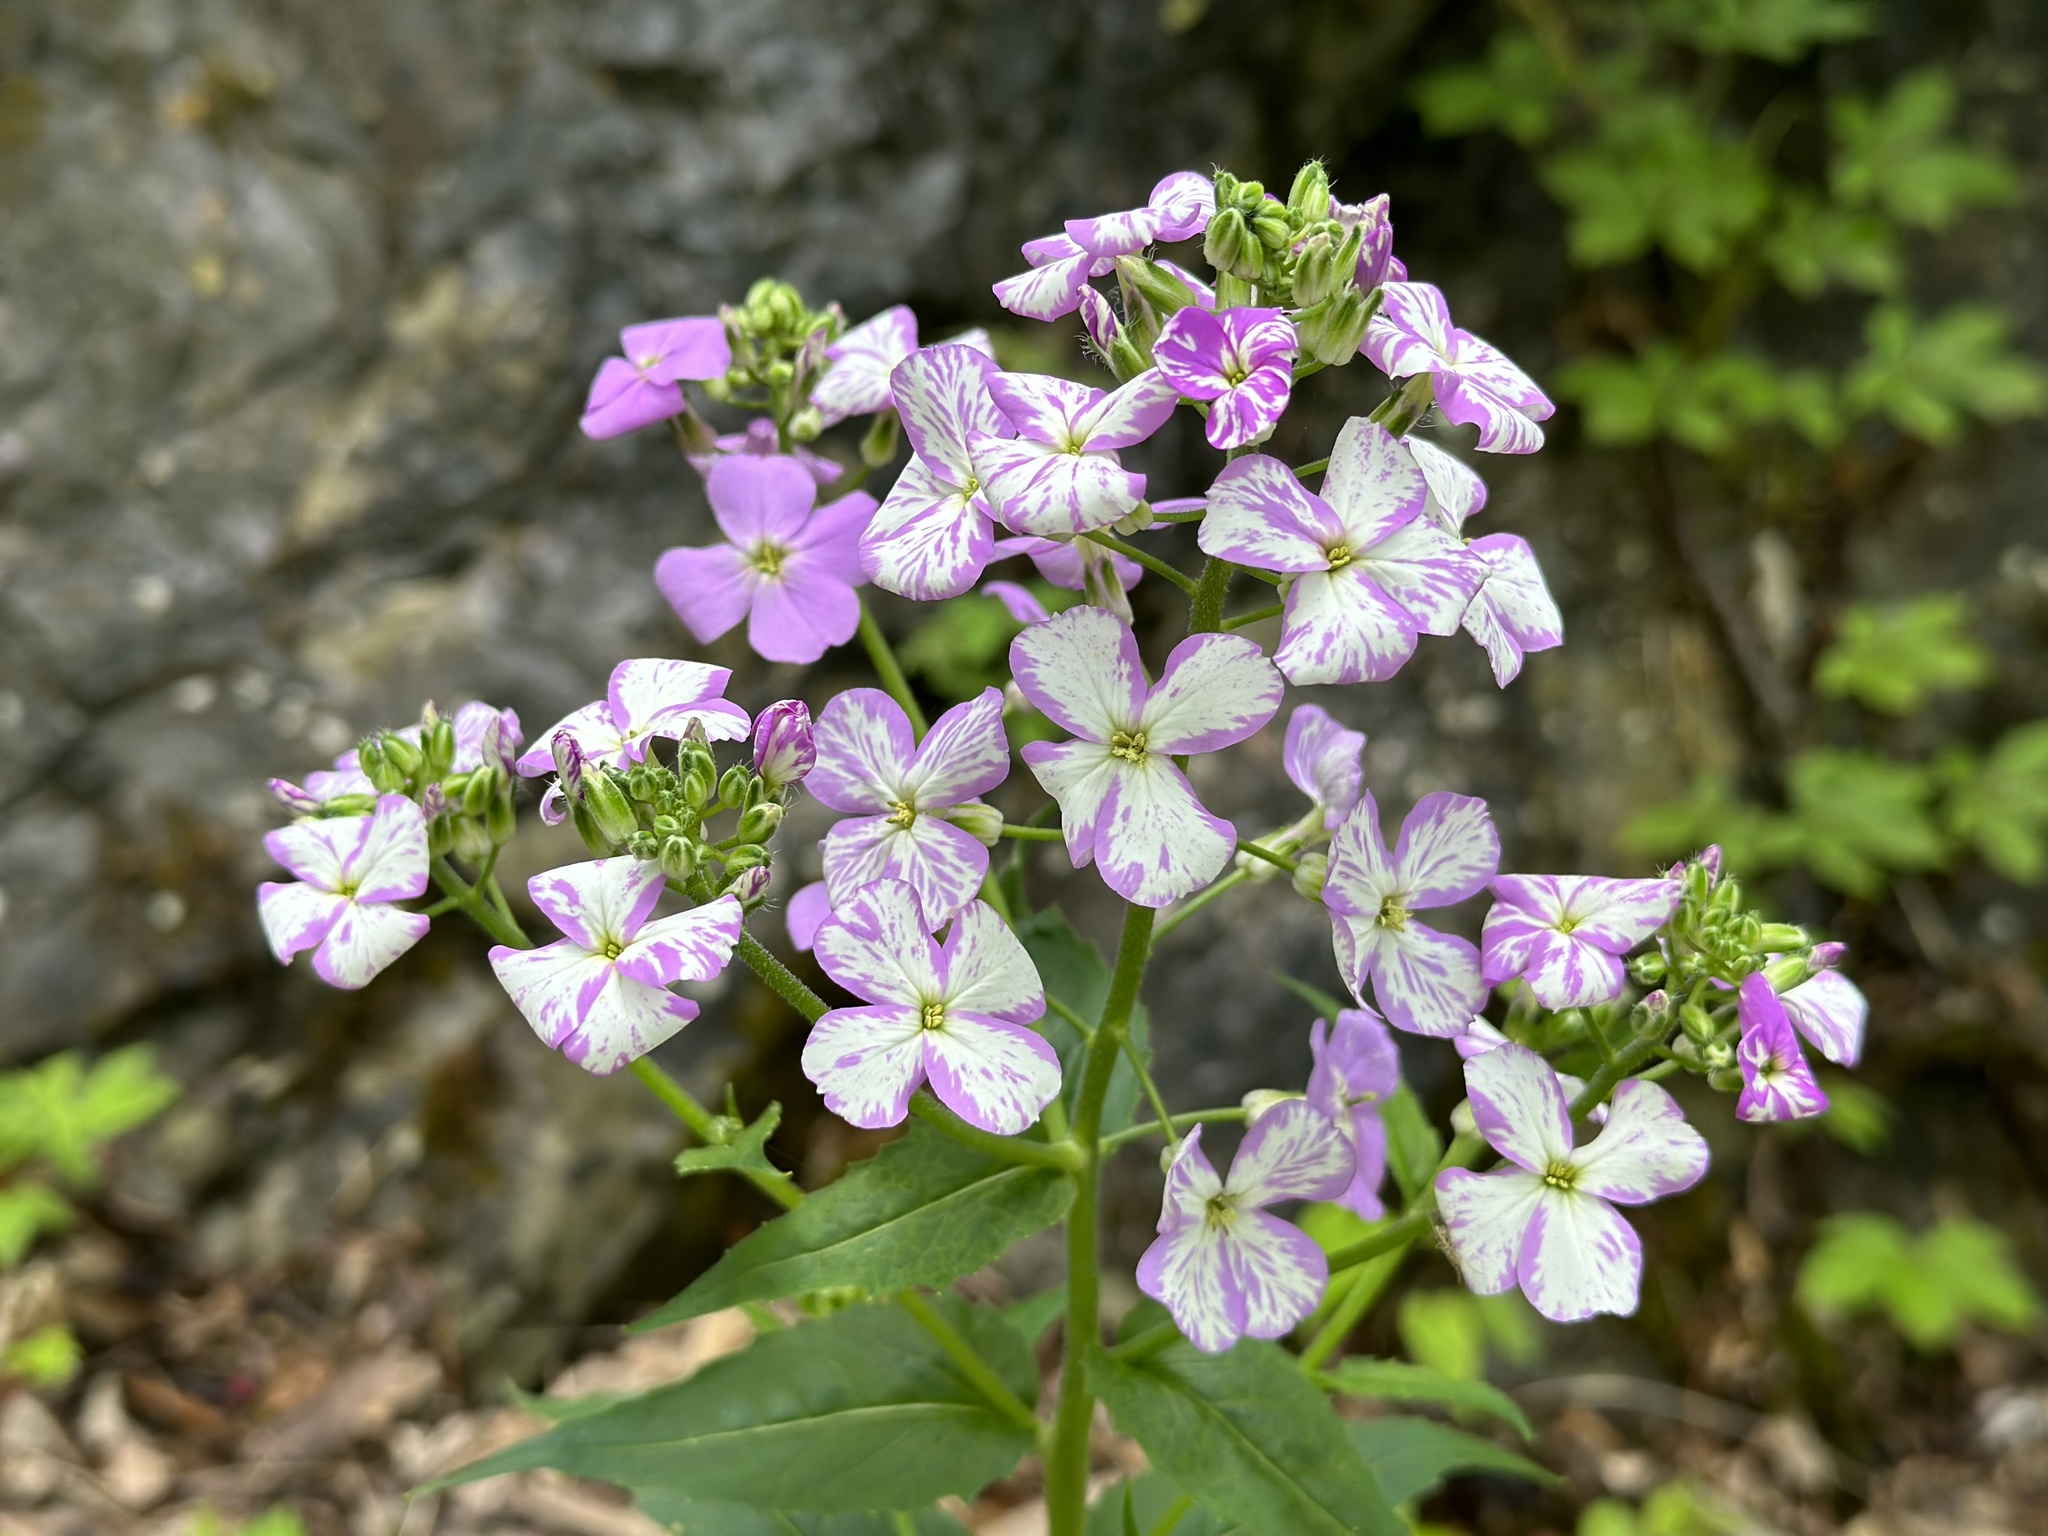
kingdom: Plantae
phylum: Tracheophyta
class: Magnoliopsida
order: Brassicales
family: Brassicaceae
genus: Hesperis
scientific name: Hesperis matronalis
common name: Dame's-violet
